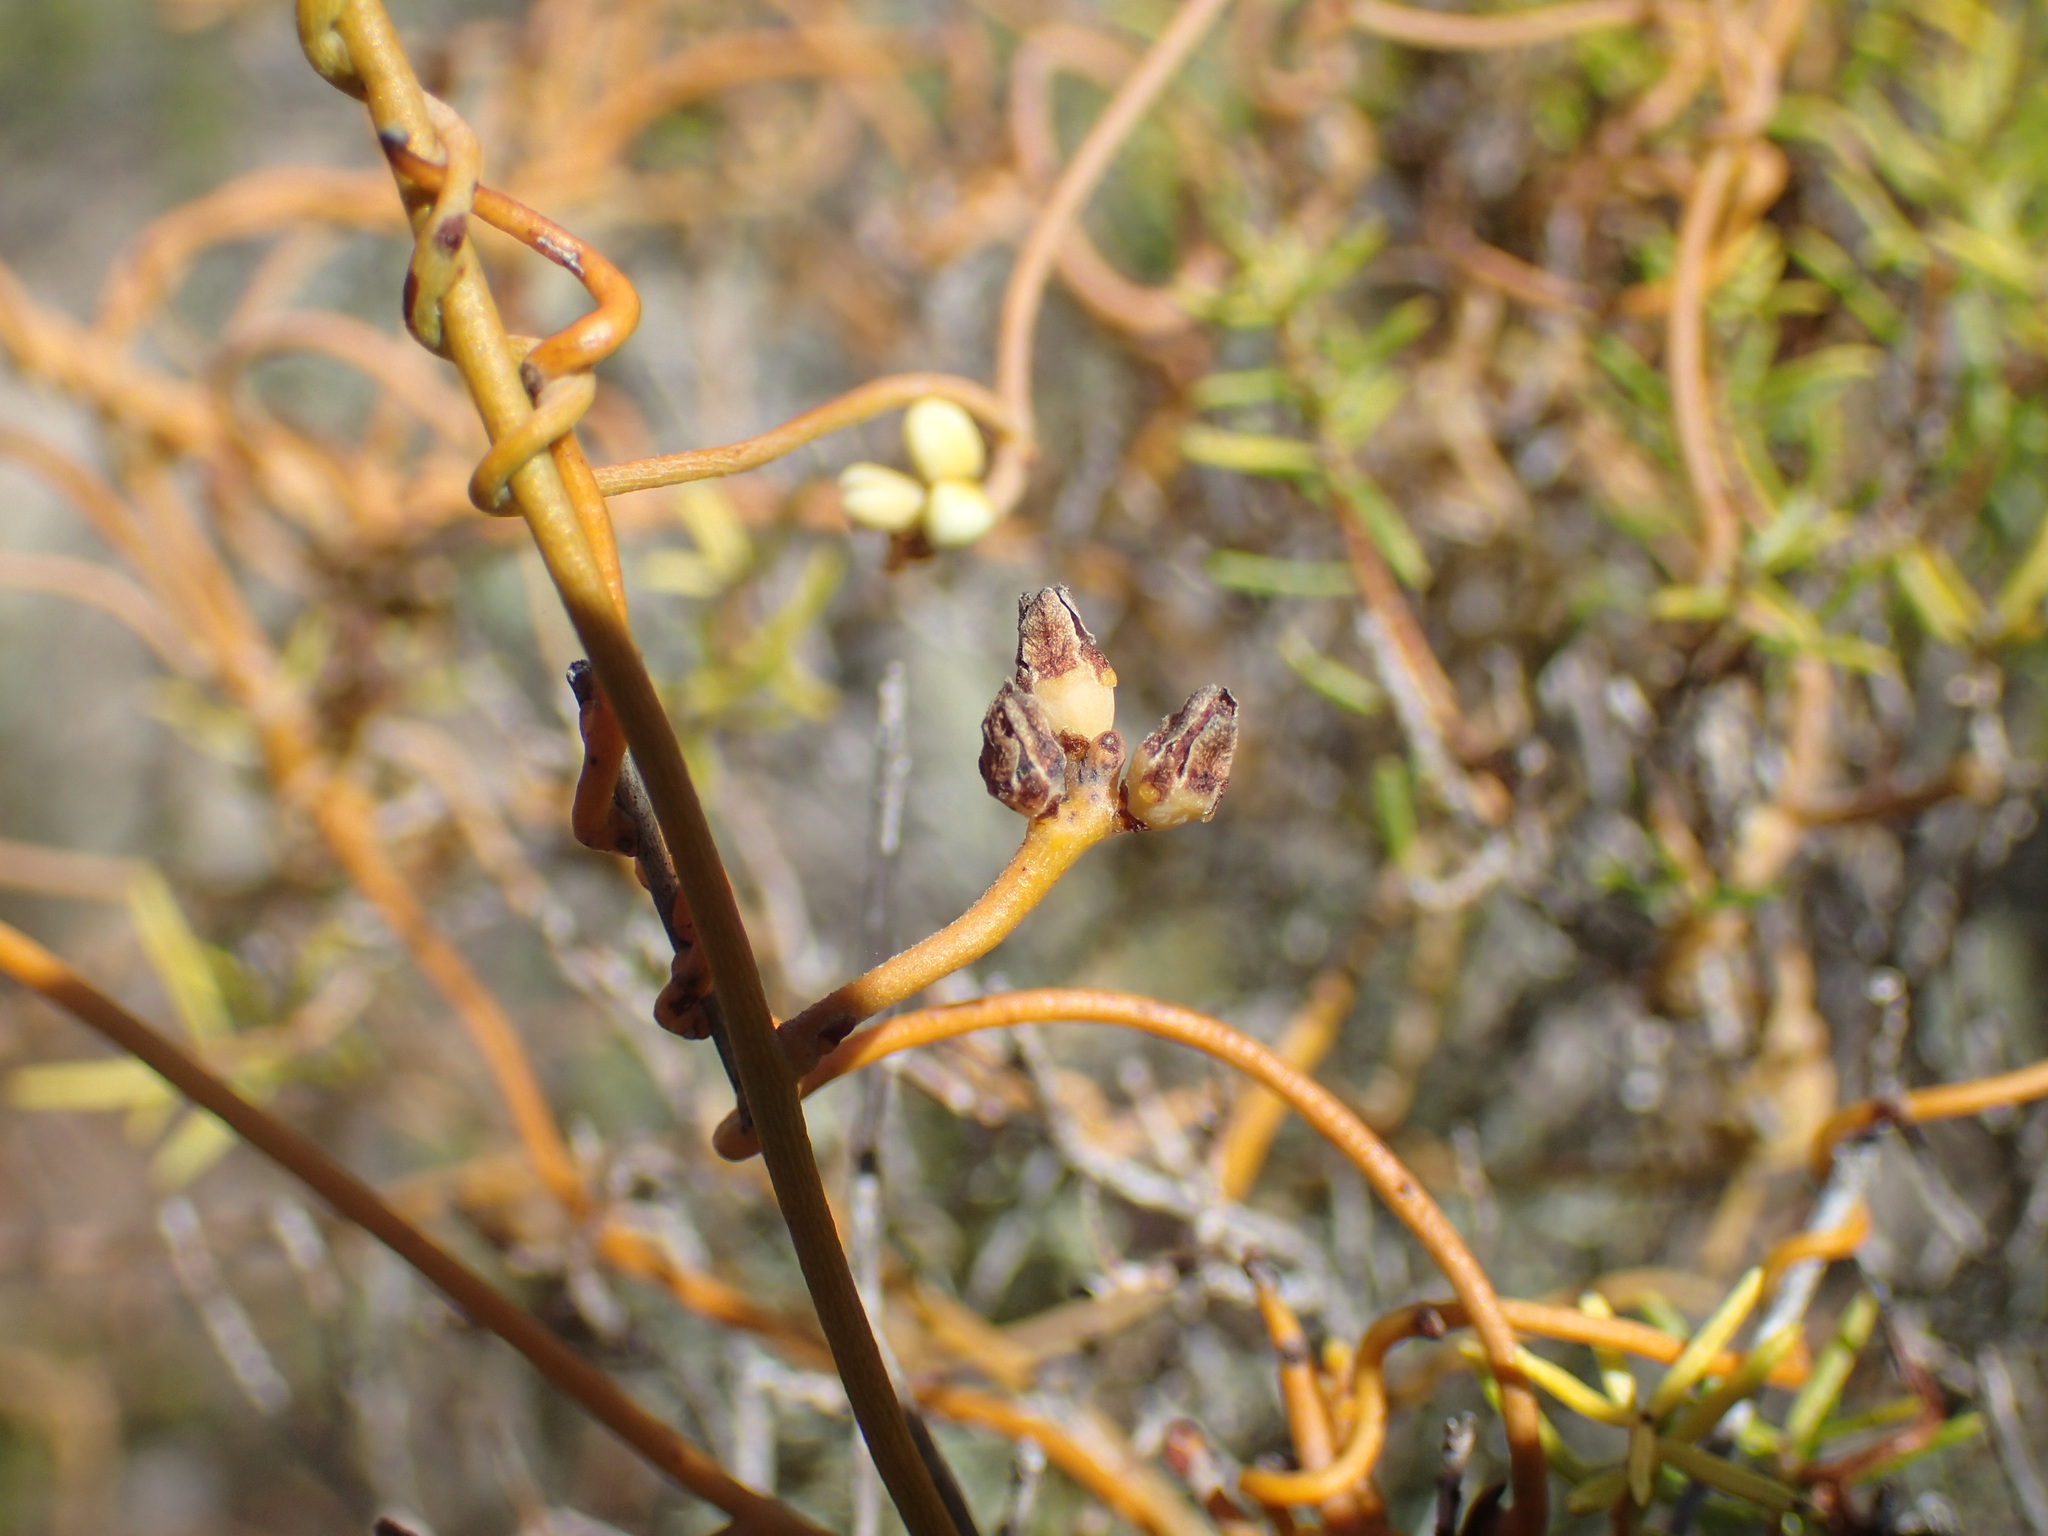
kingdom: Plantae
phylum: Tracheophyta
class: Magnoliopsida
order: Laurales
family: Lauraceae
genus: Cassytha
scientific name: Cassytha ciliolata
